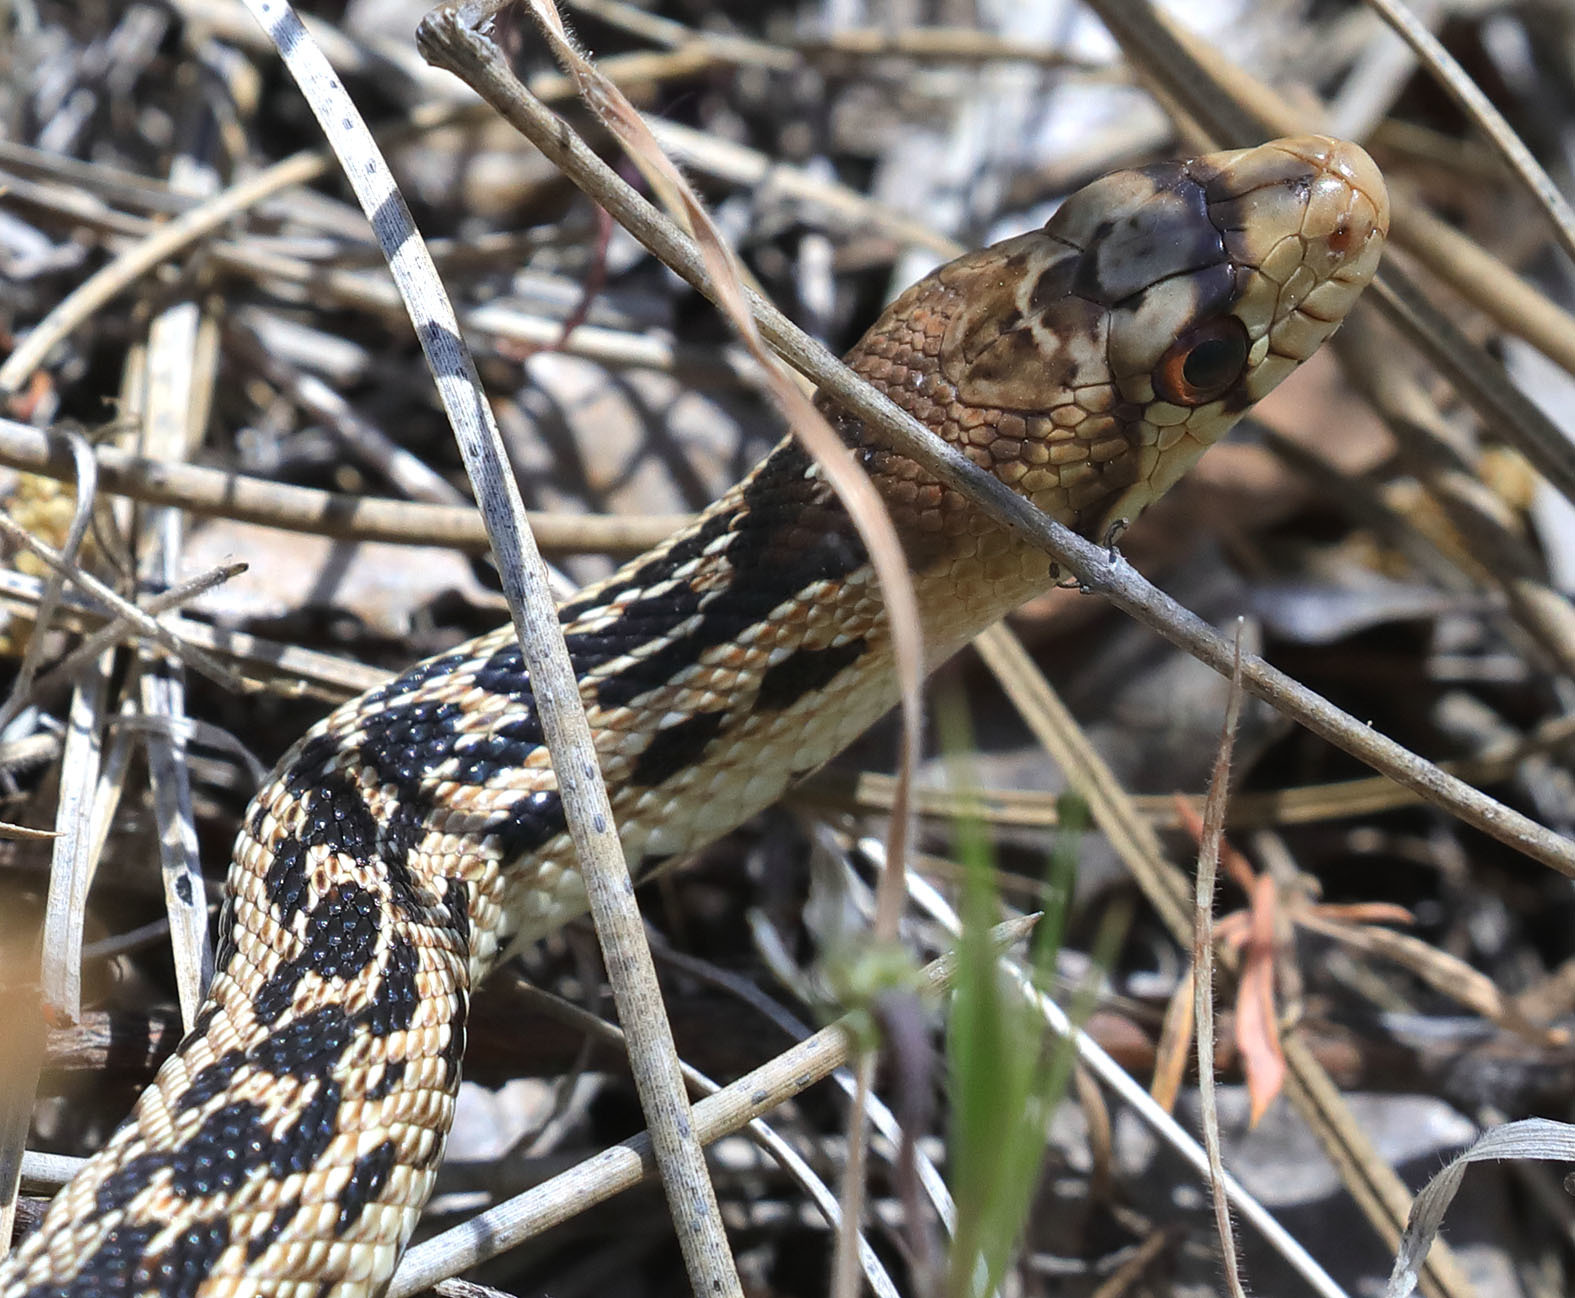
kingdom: Animalia
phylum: Chordata
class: Squamata
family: Colubridae
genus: Pituophis
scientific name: Pituophis catenifer
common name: Gopher snake
